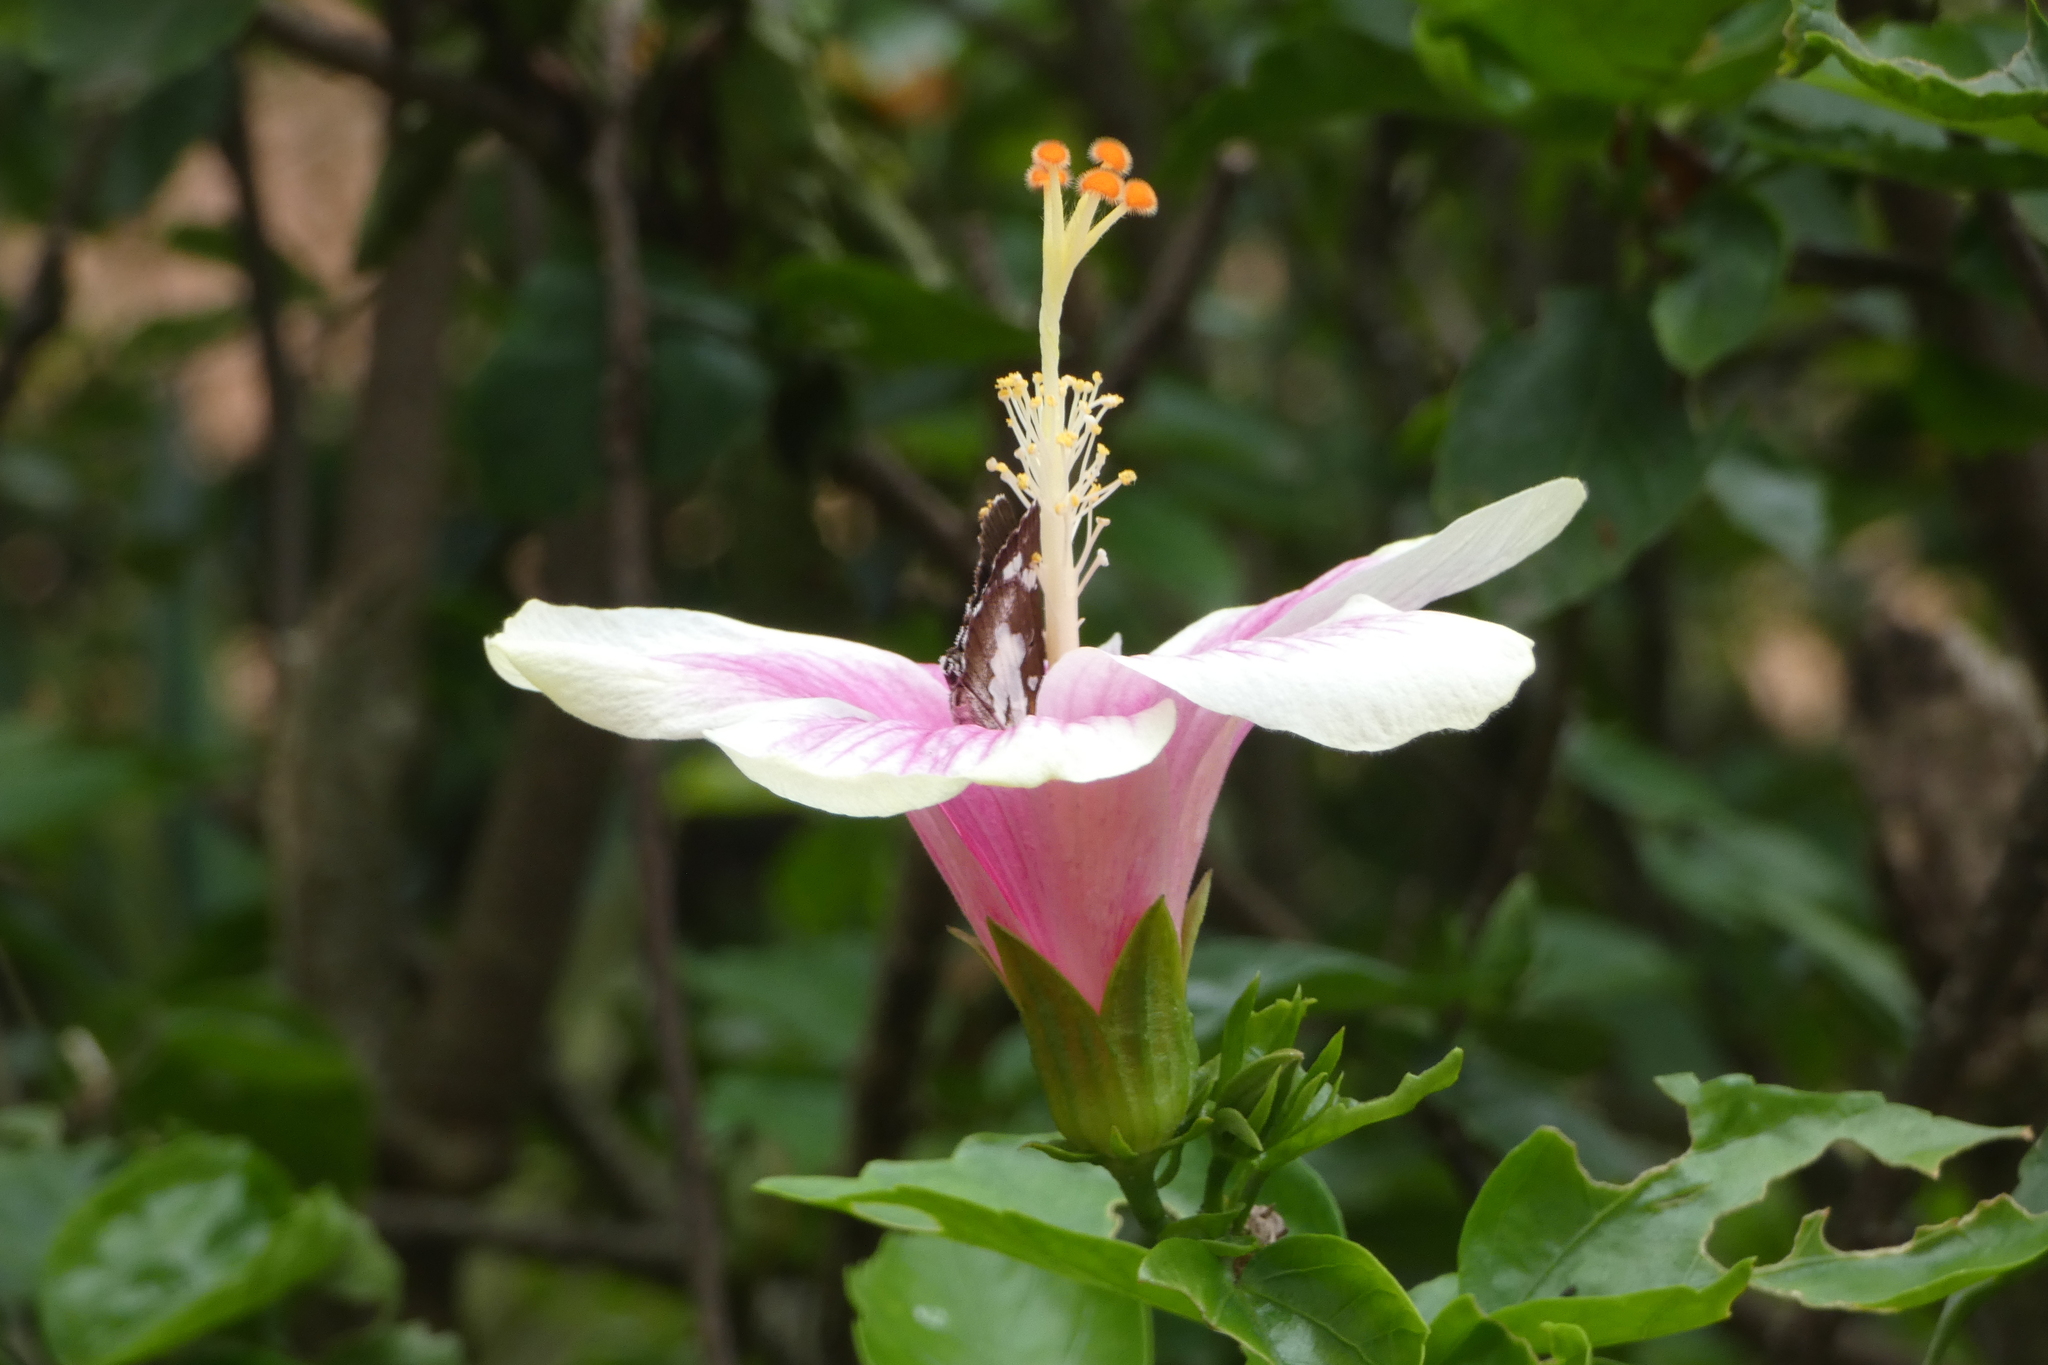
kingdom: Animalia
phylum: Arthropoda
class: Insecta
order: Lepidoptera
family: Hesperiidae
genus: Udaspes
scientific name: Udaspes folus
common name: Grass demon
